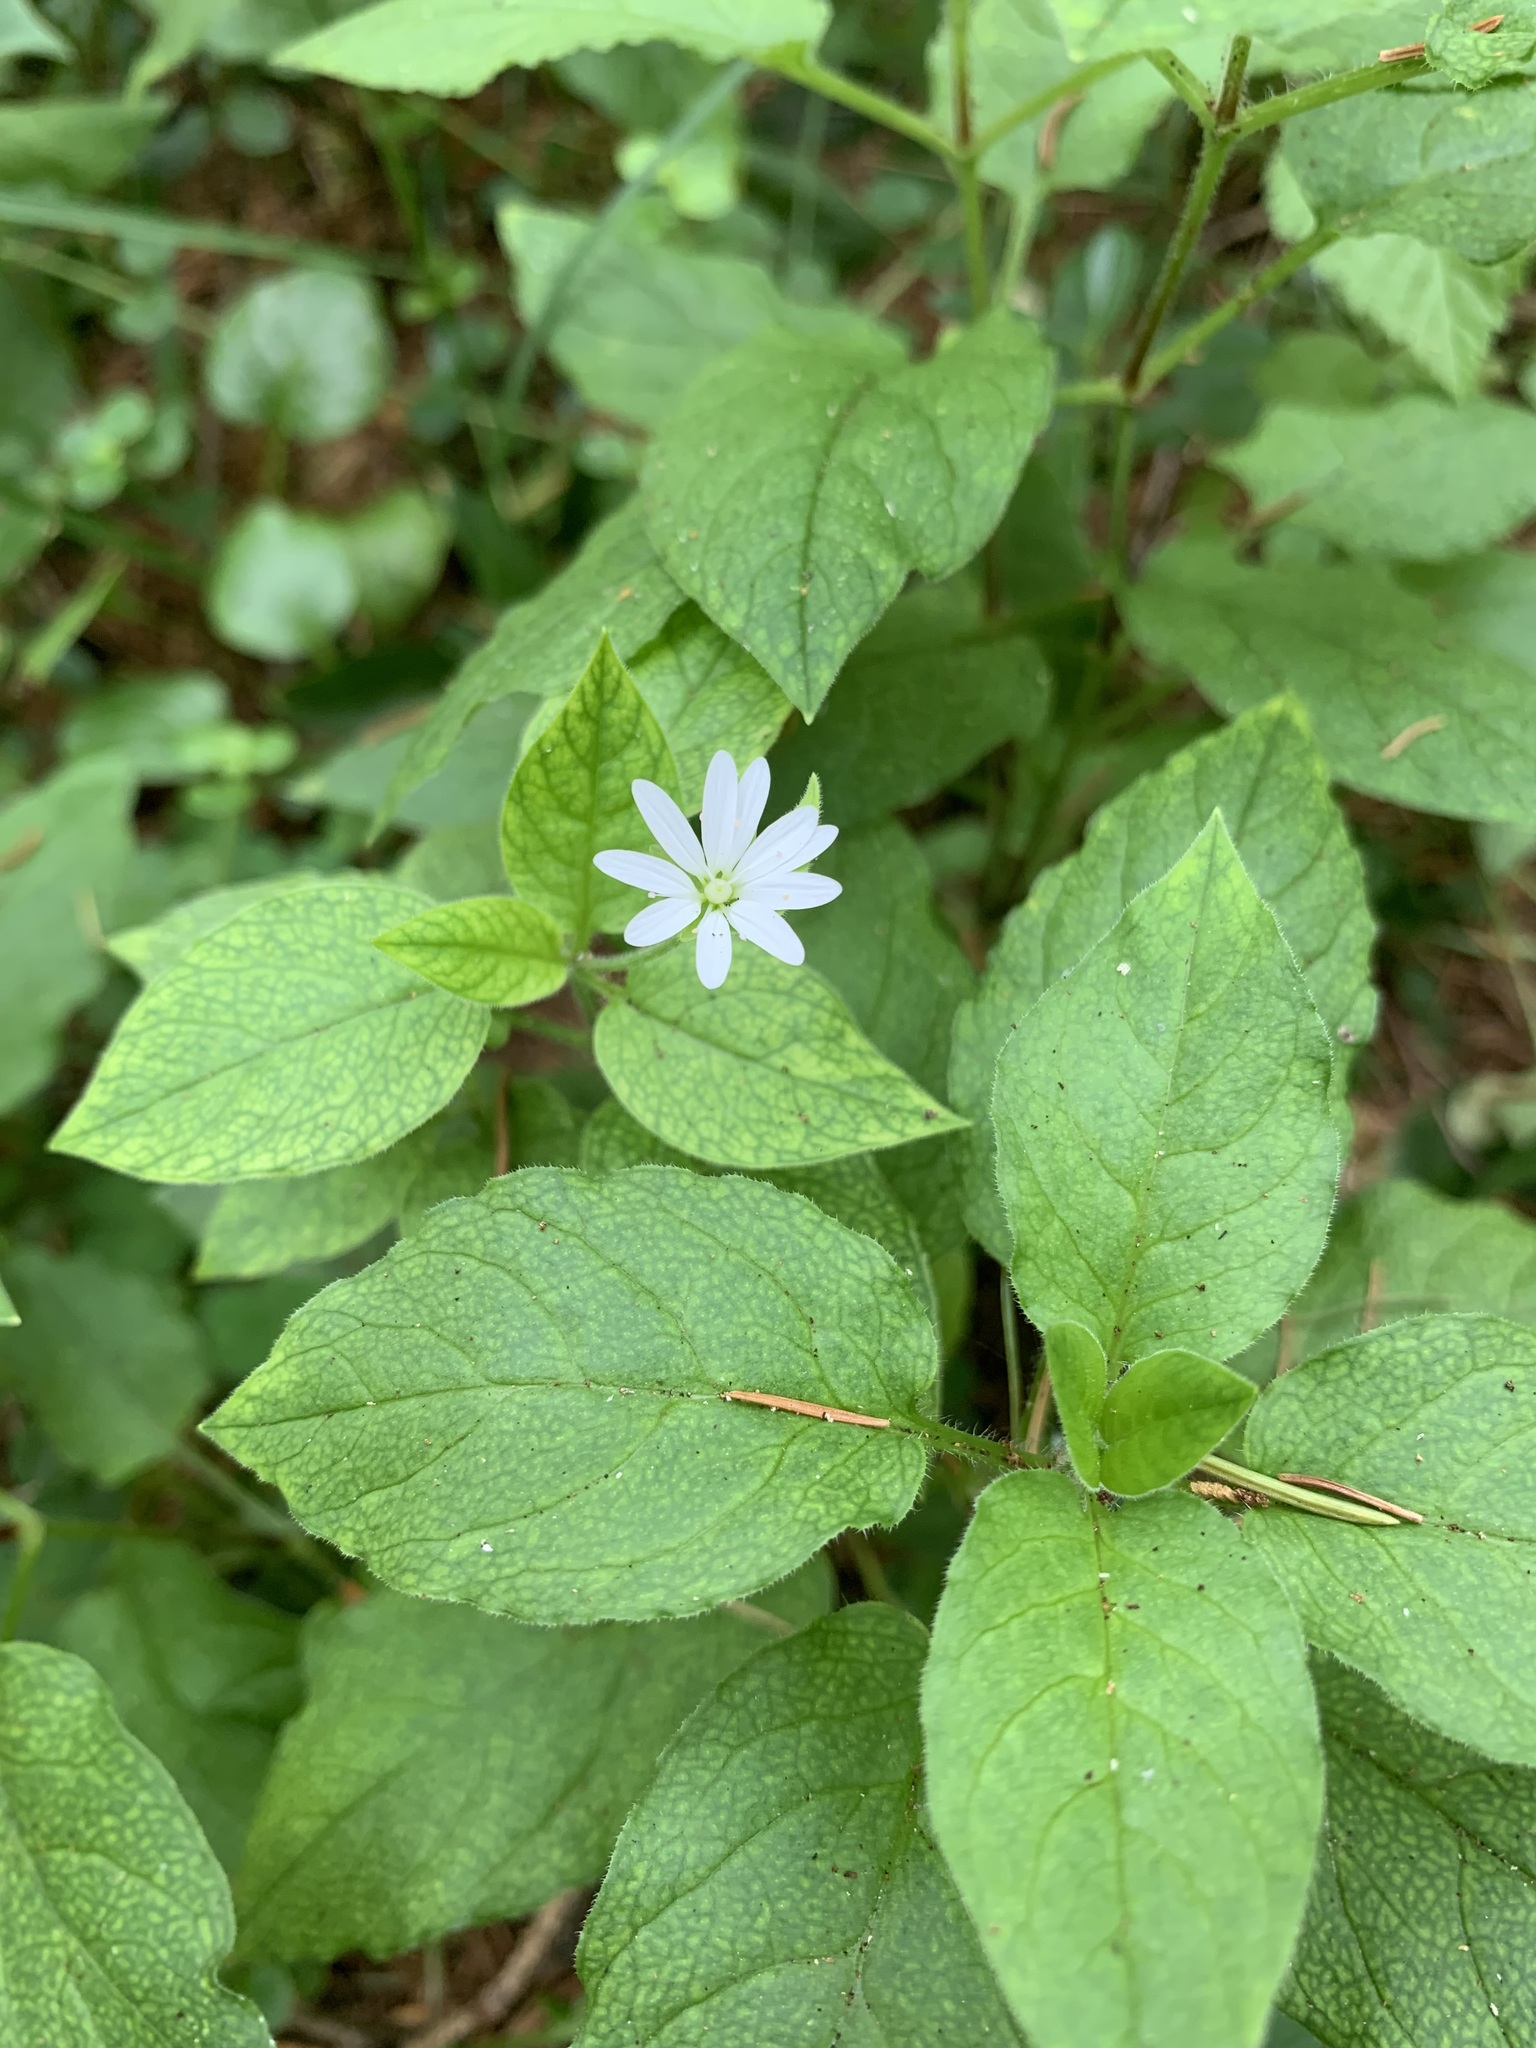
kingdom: Plantae
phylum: Tracheophyta
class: Magnoliopsida
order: Caryophyllales
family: Caryophyllaceae
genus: Stellaria
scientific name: Stellaria bungeana
